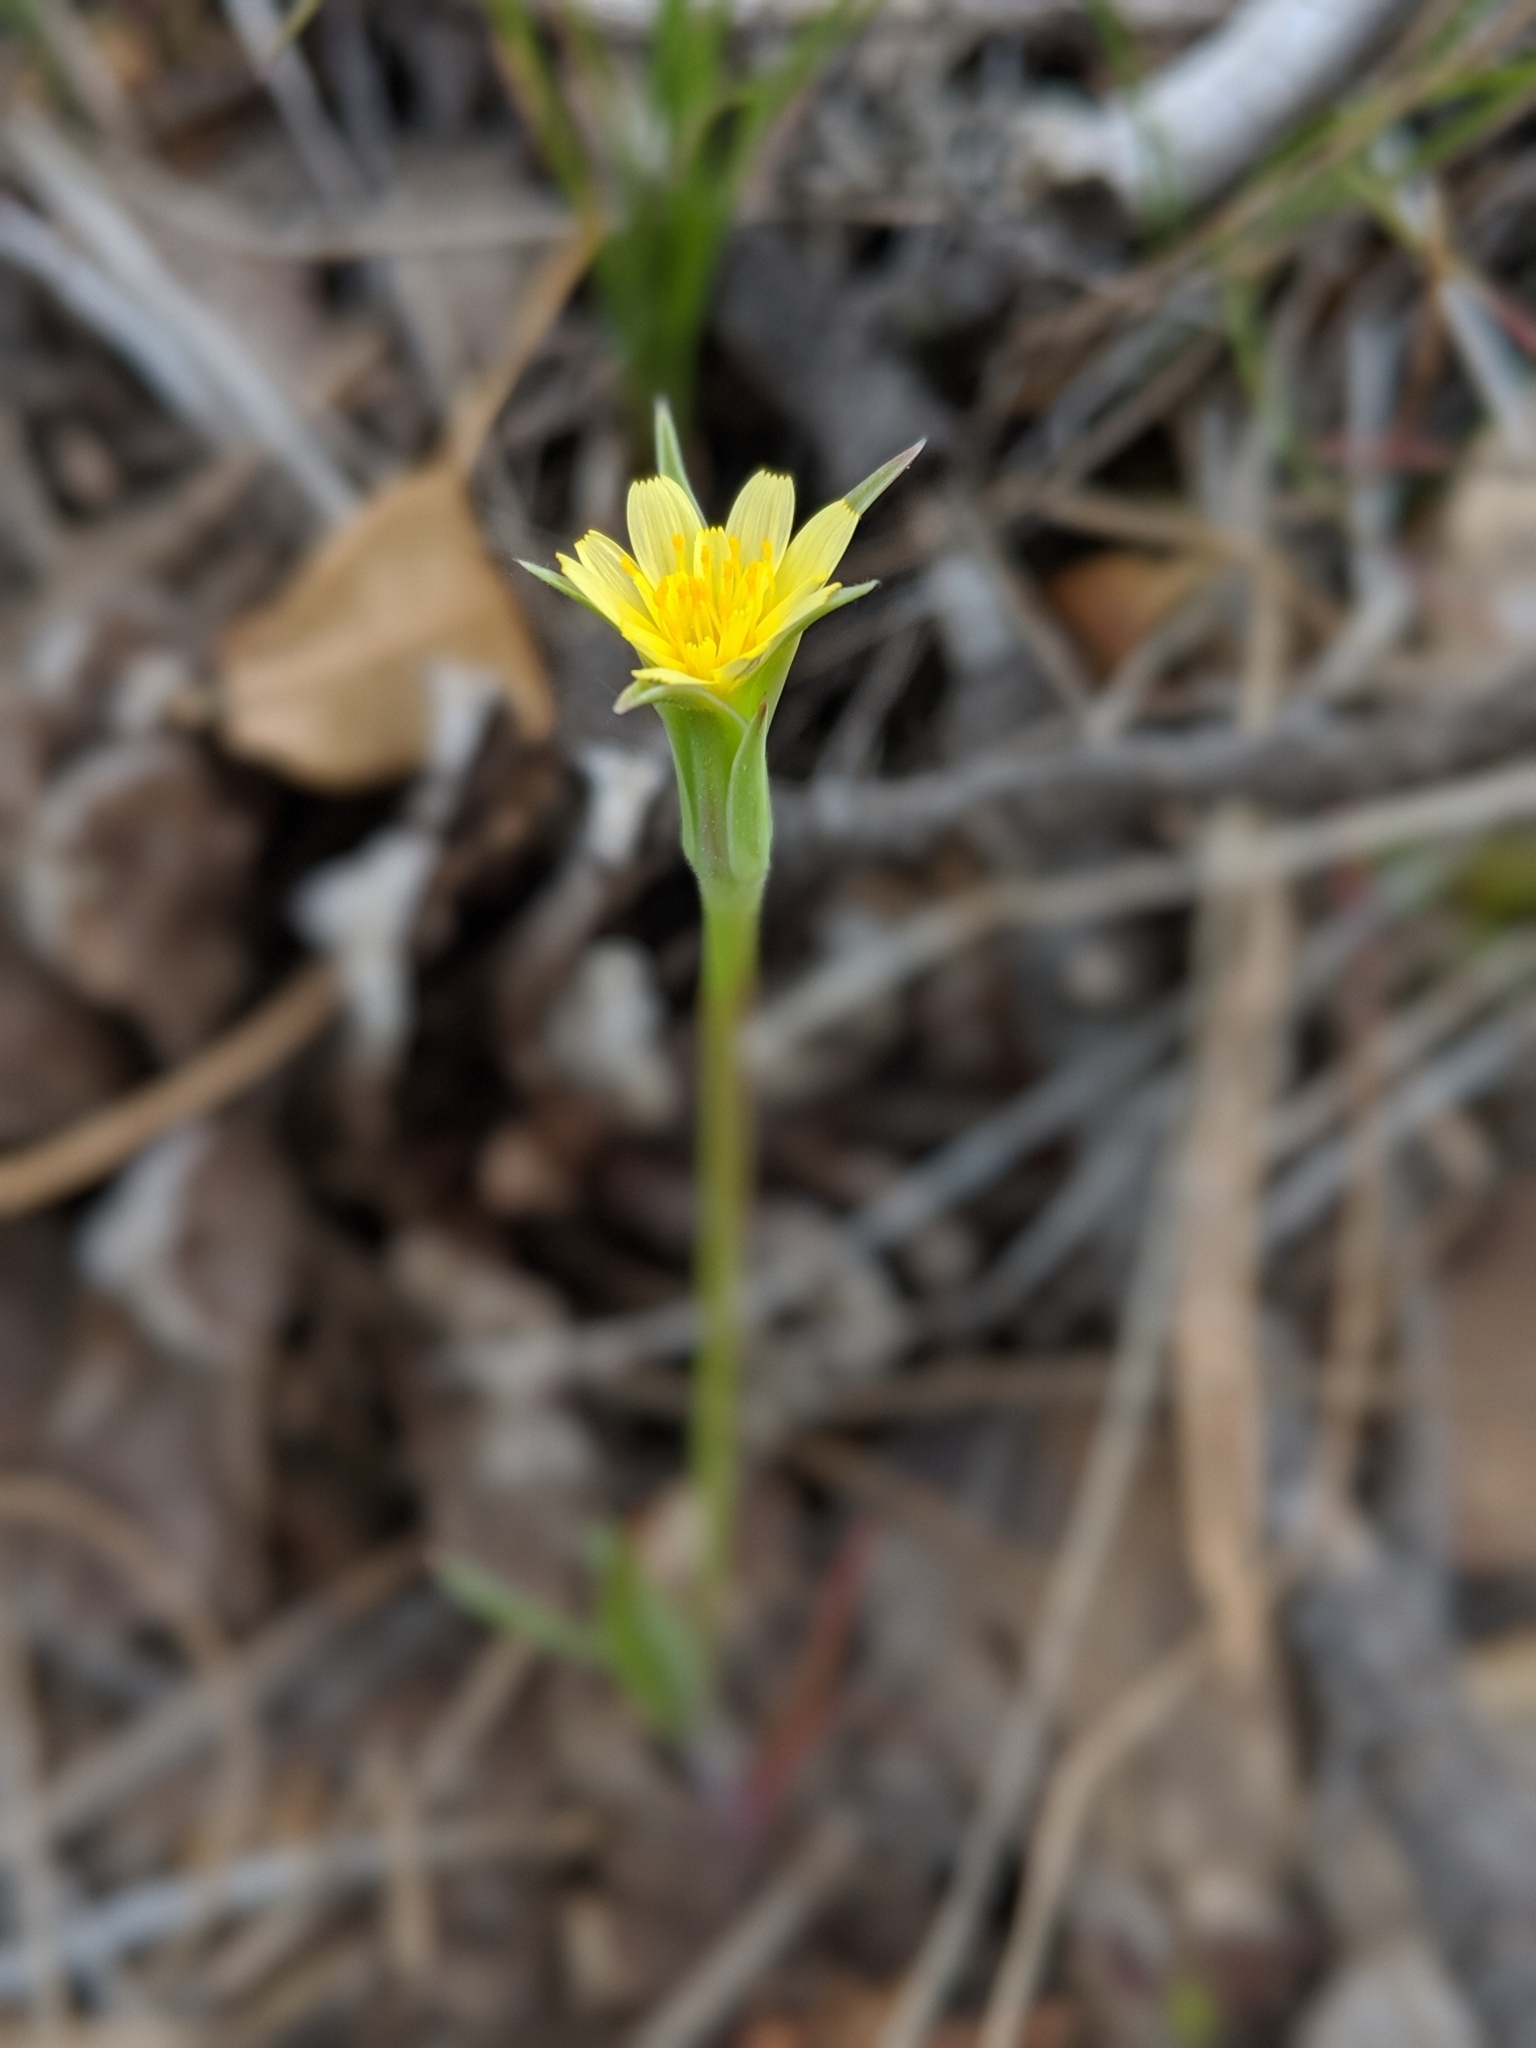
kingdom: Plantae
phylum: Tracheophyta
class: Magnoliopsida
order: Asterales
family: Asteraceae
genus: Microseris
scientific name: Microseris lindleyi
